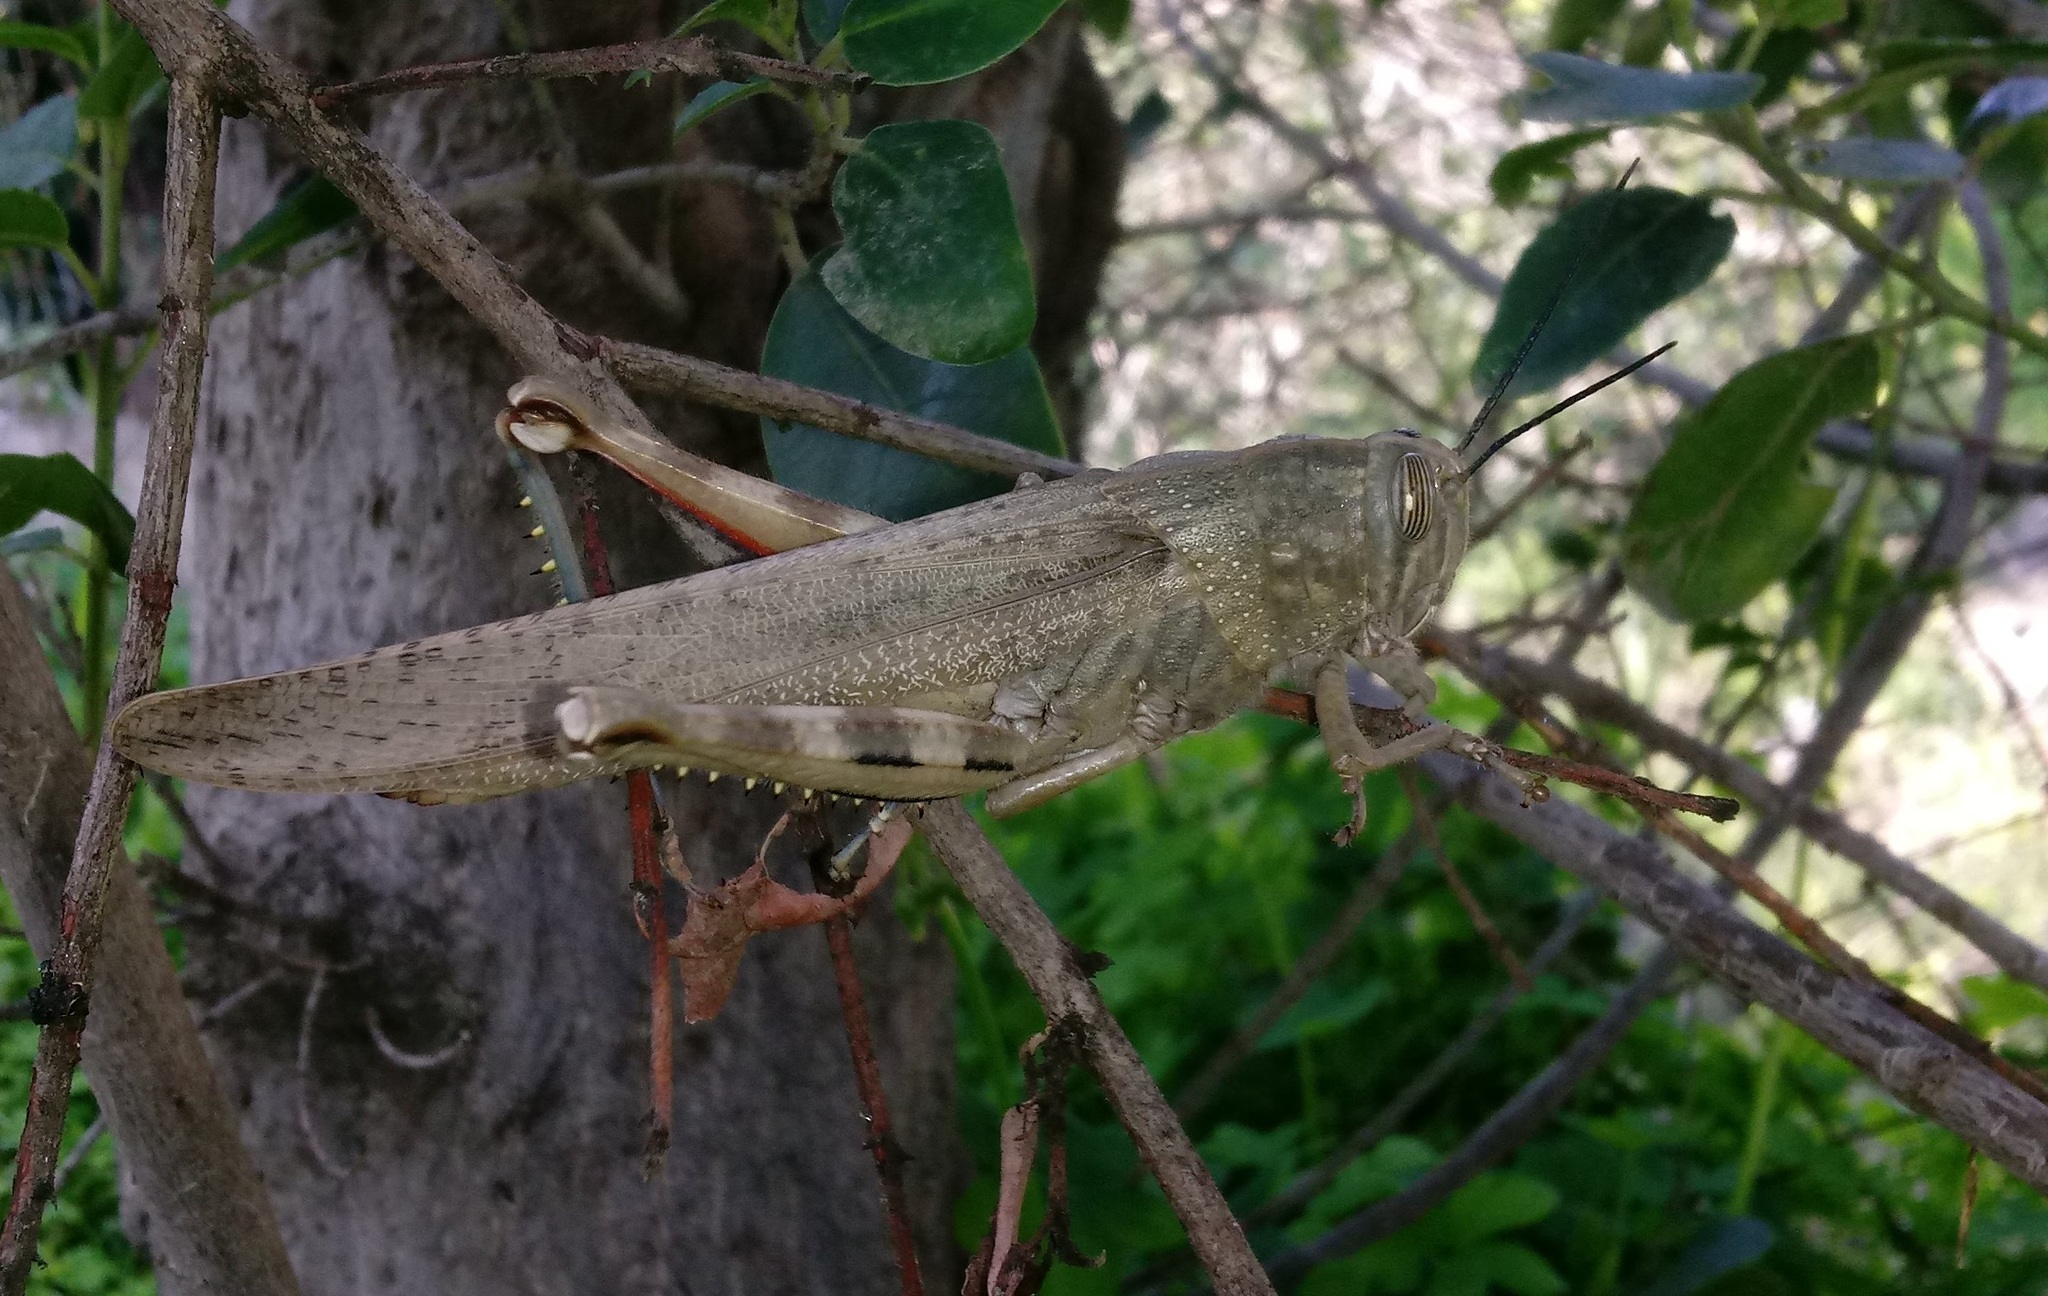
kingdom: Animalia
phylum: Arthropoda
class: Insecta
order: Orthoptera
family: Acrididae
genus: Anacridium
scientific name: Anacridium aegyptium
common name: Egyptian grasshopper
